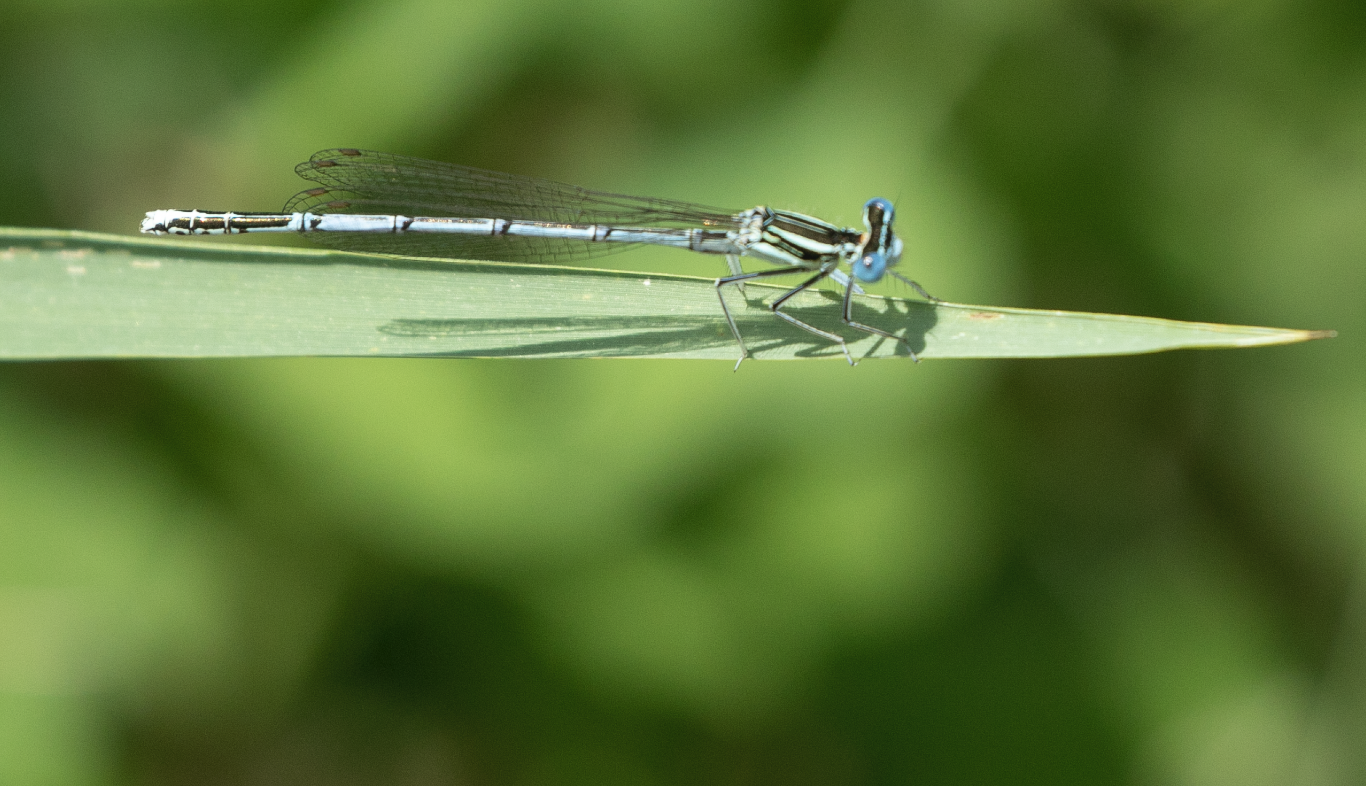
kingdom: Animalia
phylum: Arthropoda
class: Insecta
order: Odonata
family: Platycnemididae
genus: Platycnemis
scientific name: Platycnemis pennipes
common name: White-legged damselfly
